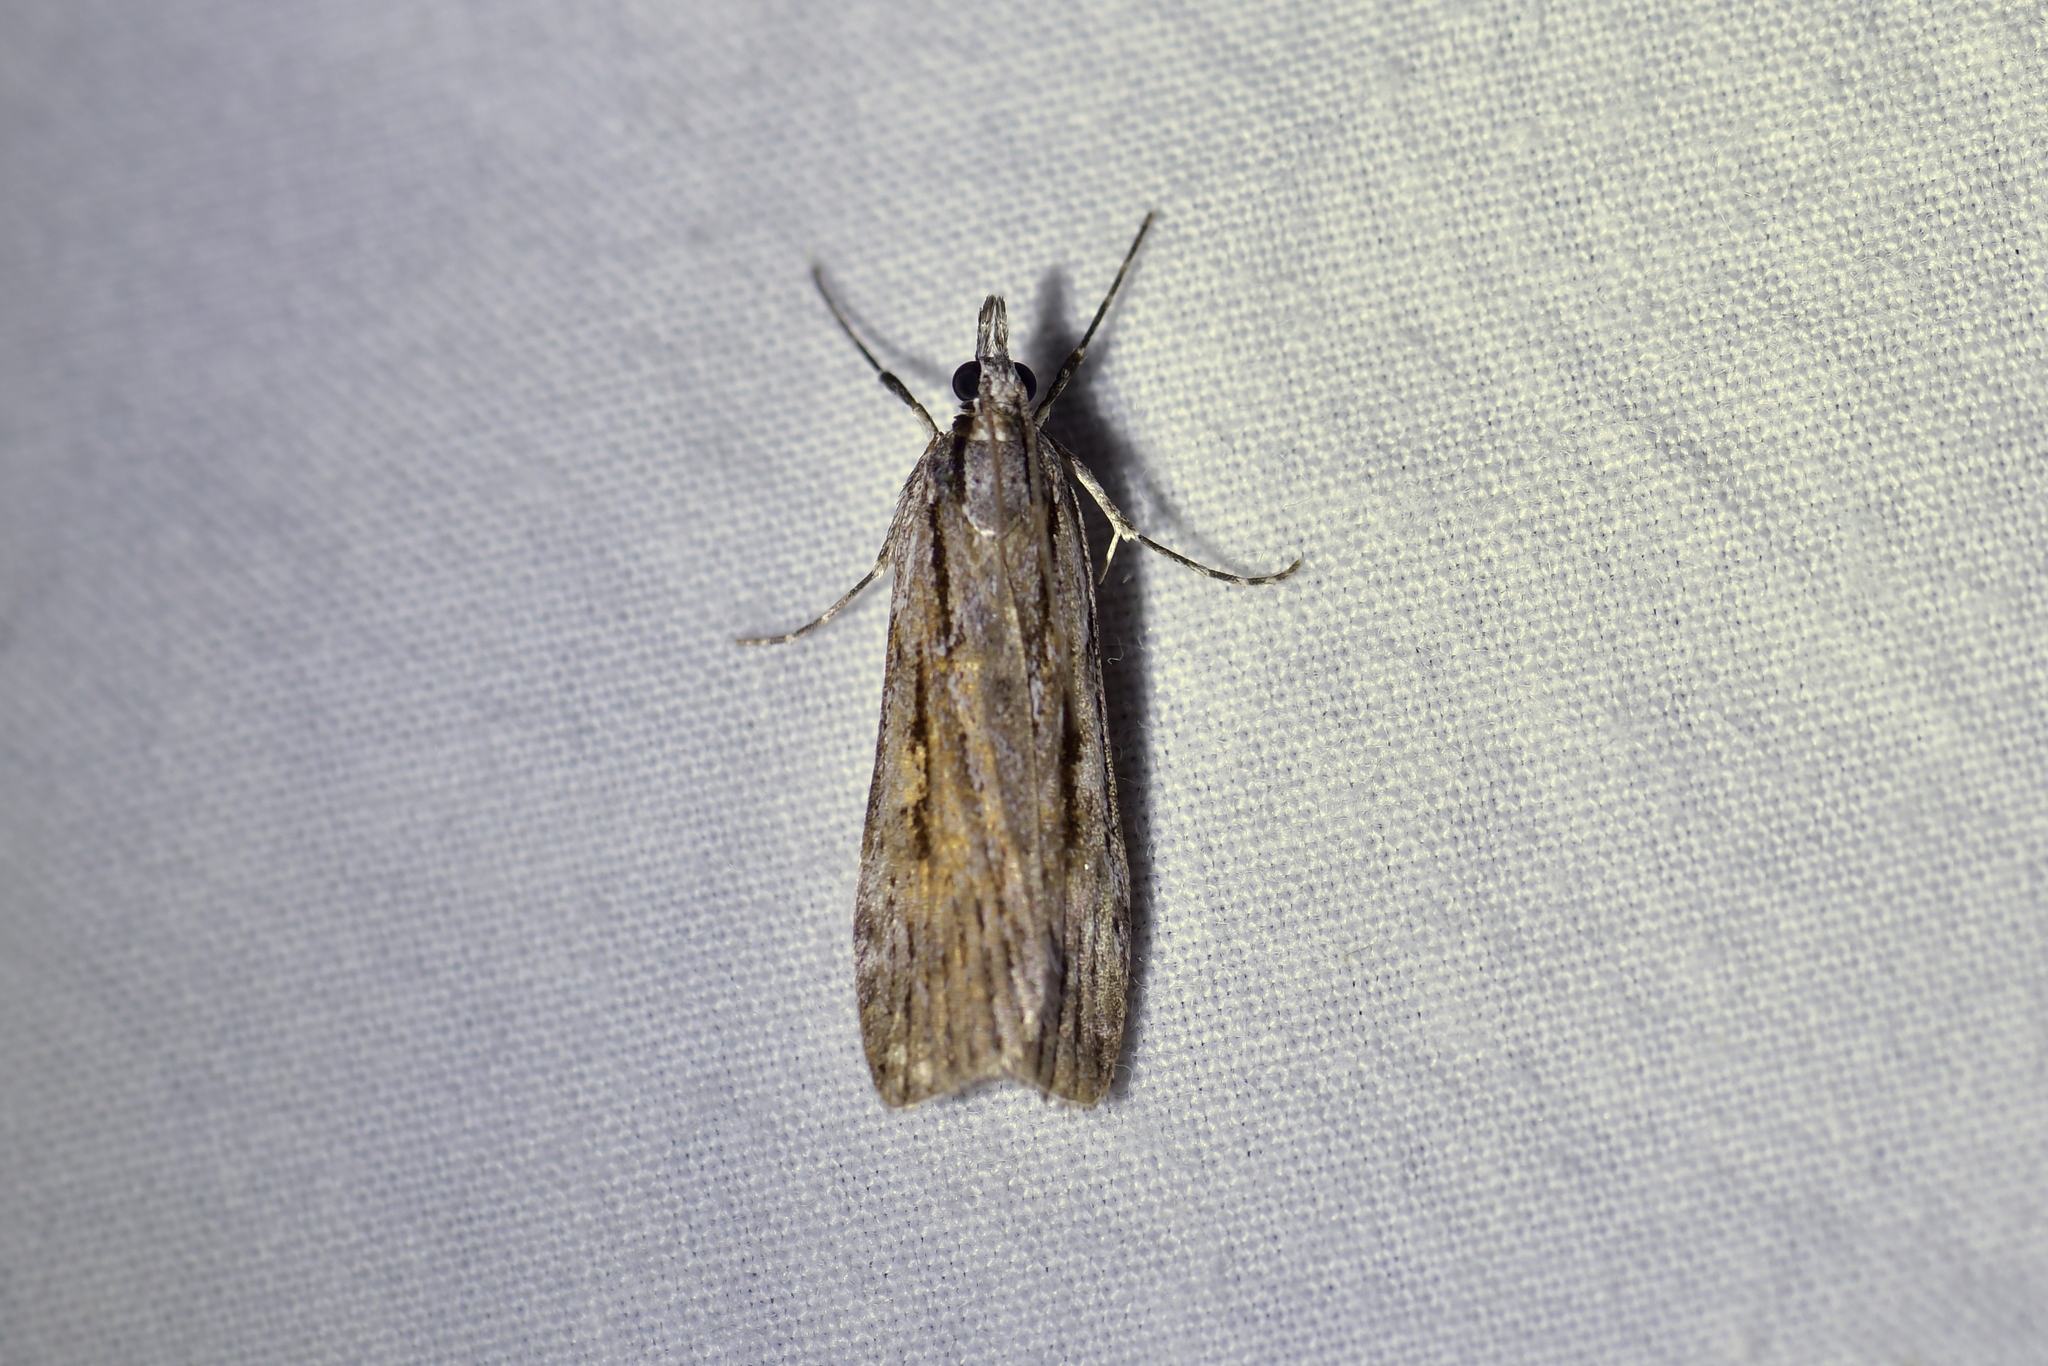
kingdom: Animalia
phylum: Arthropoda
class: Insecta
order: Lepidoptera
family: Crambidae
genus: Scoparia
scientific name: Scoparia indistinctalis
